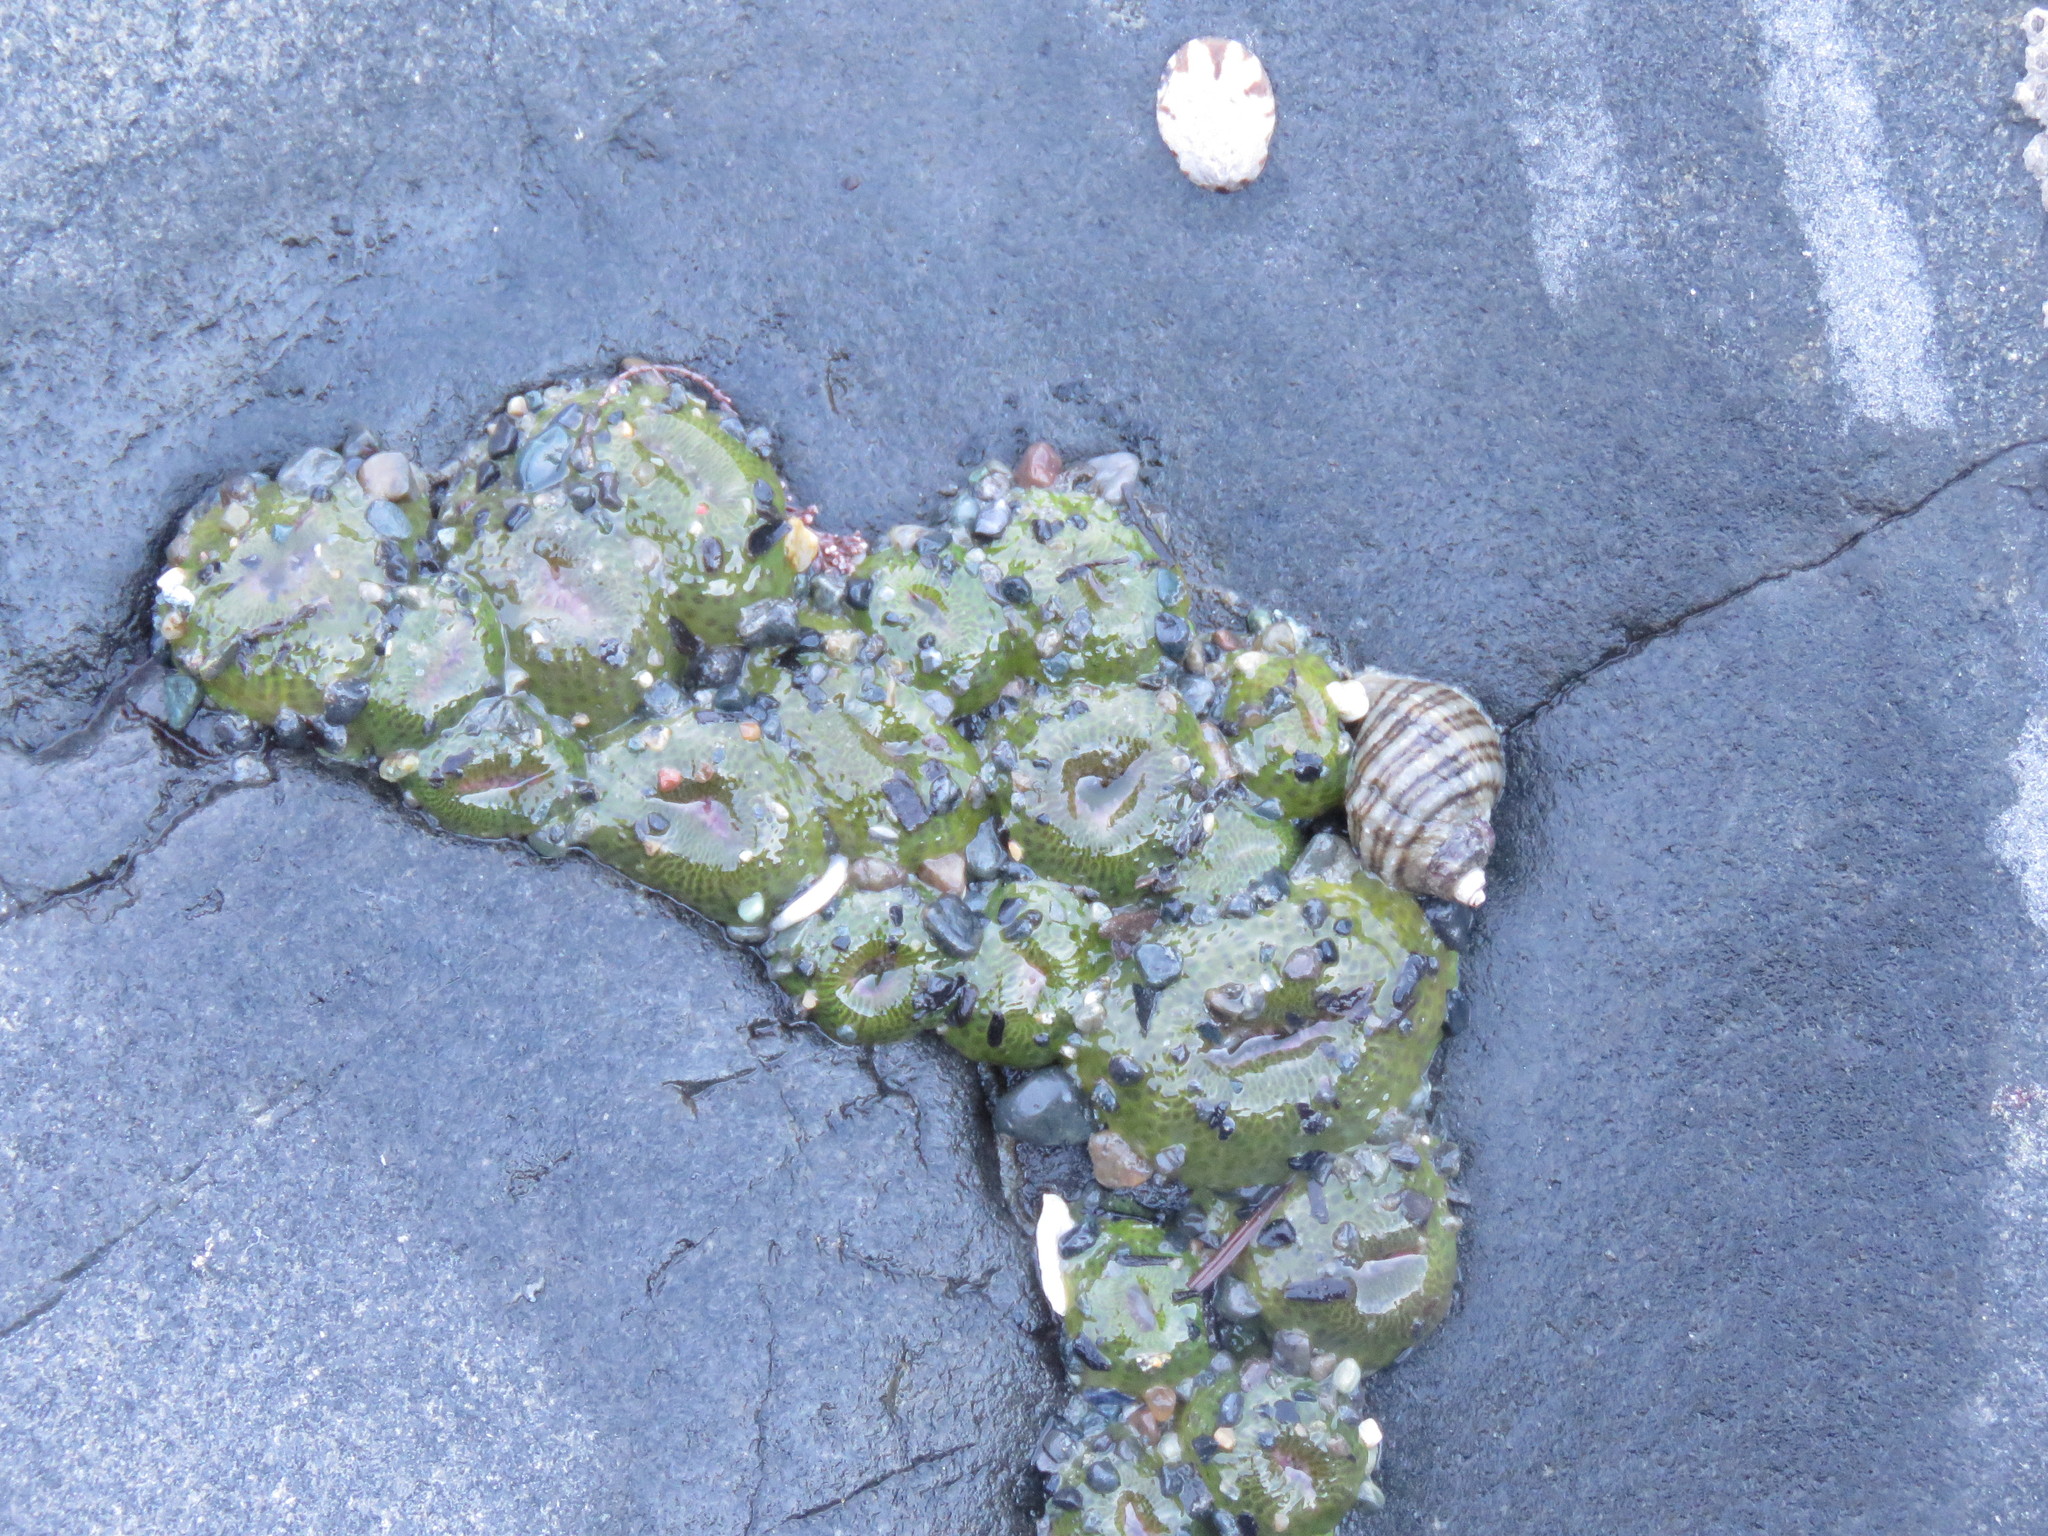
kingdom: Animalia
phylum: Cnidaria
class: Anthozoa
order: Actiniaria
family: Actiniidae
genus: Anthopleura
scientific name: Anthopleura elegantissima
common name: Clonal anemone
